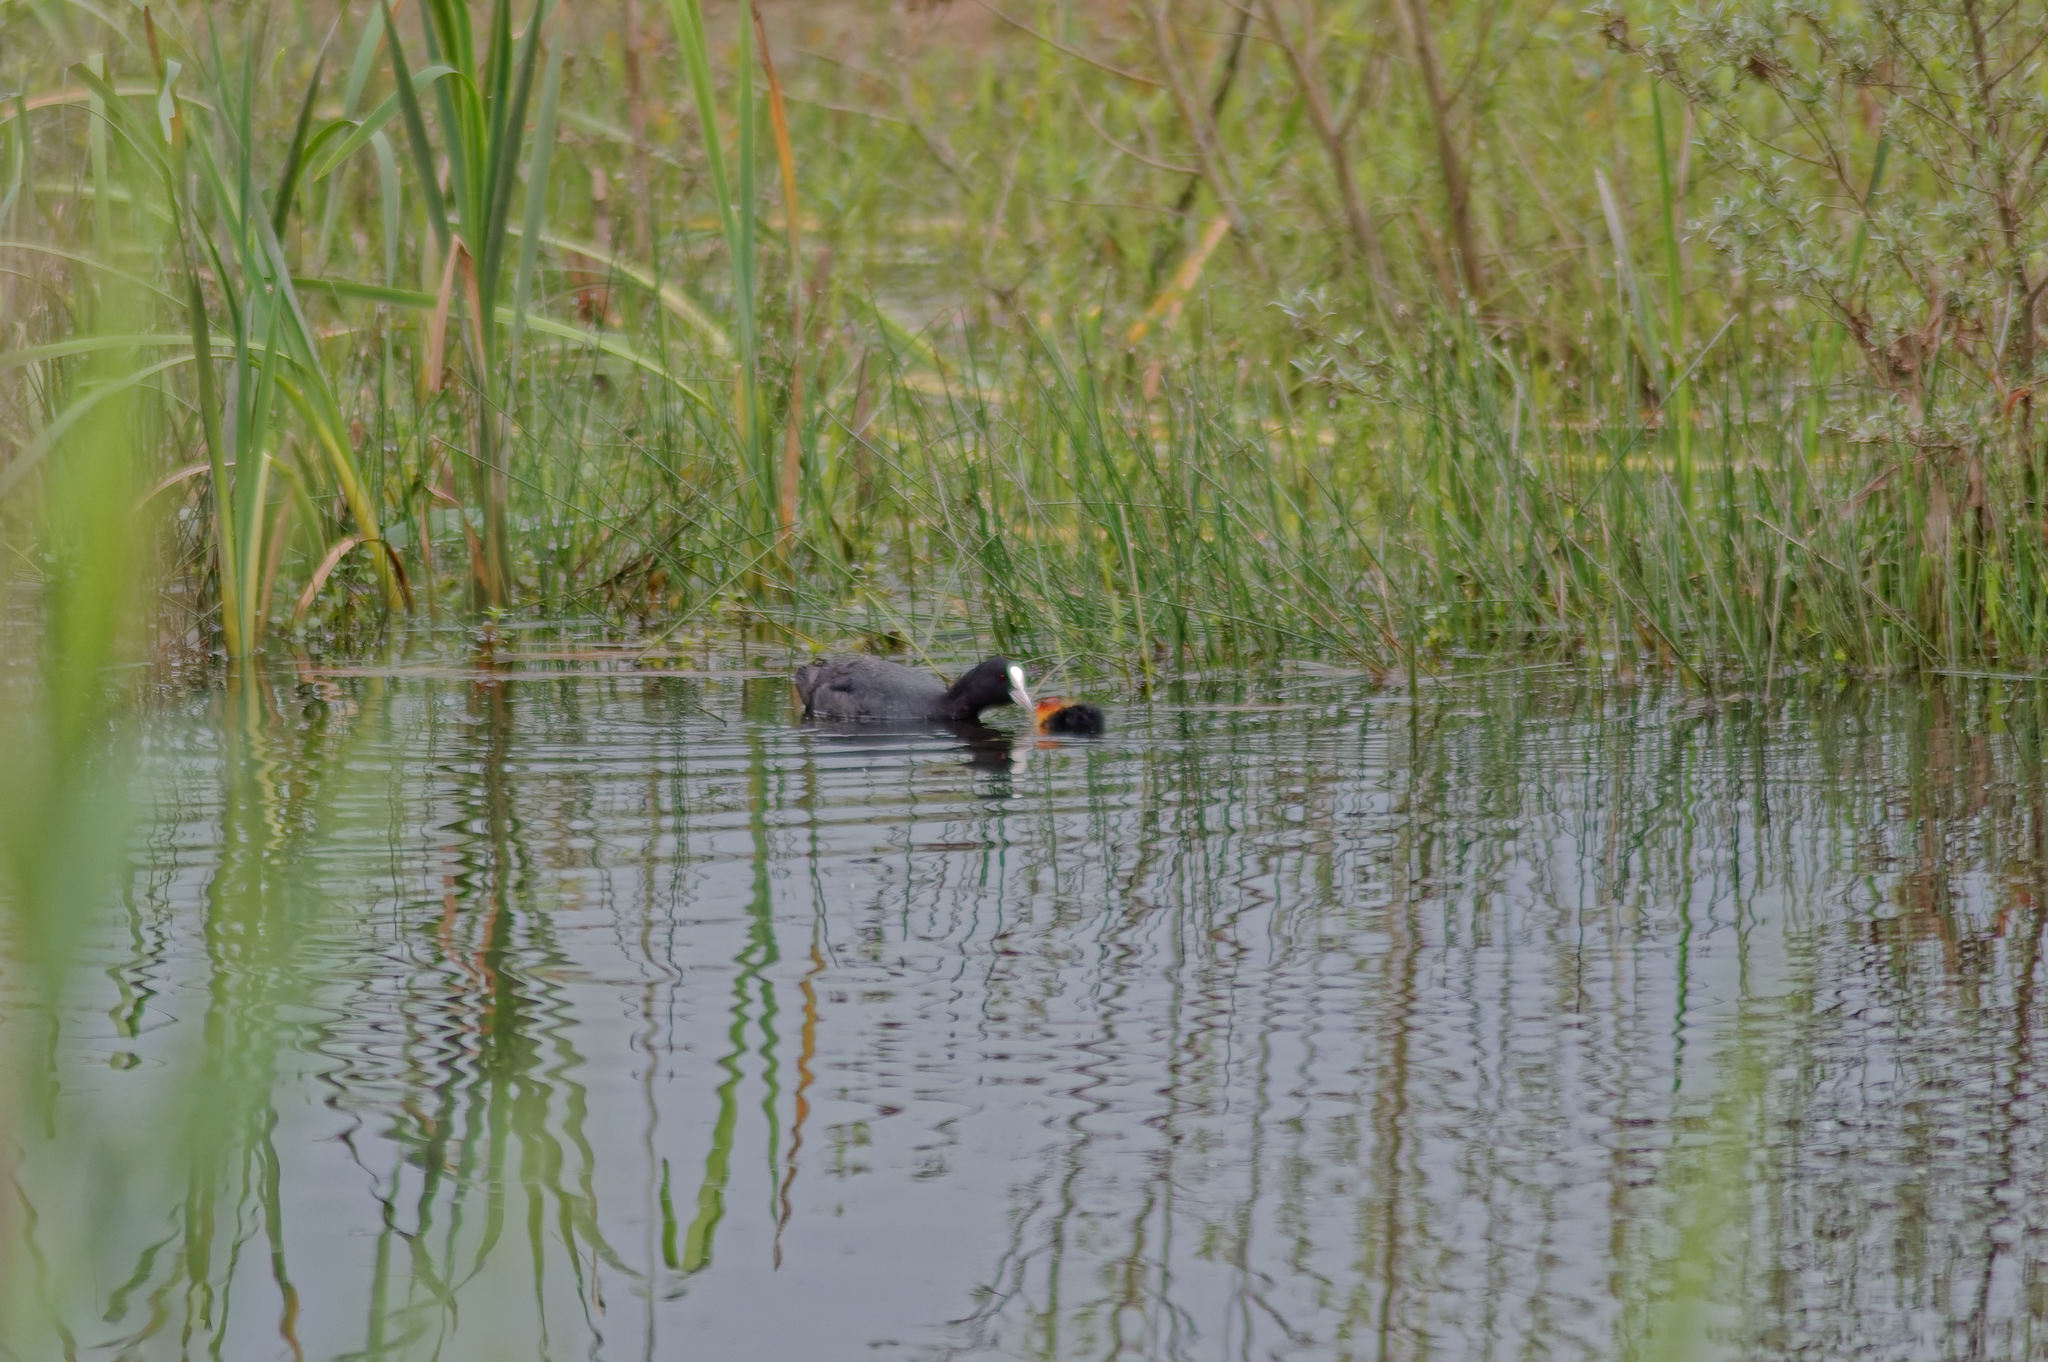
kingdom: Animalia
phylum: Chordata
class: Aves
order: Gruiformes
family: Rallidae
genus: Fulica
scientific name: Fulica atra
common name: Eurasian coot
